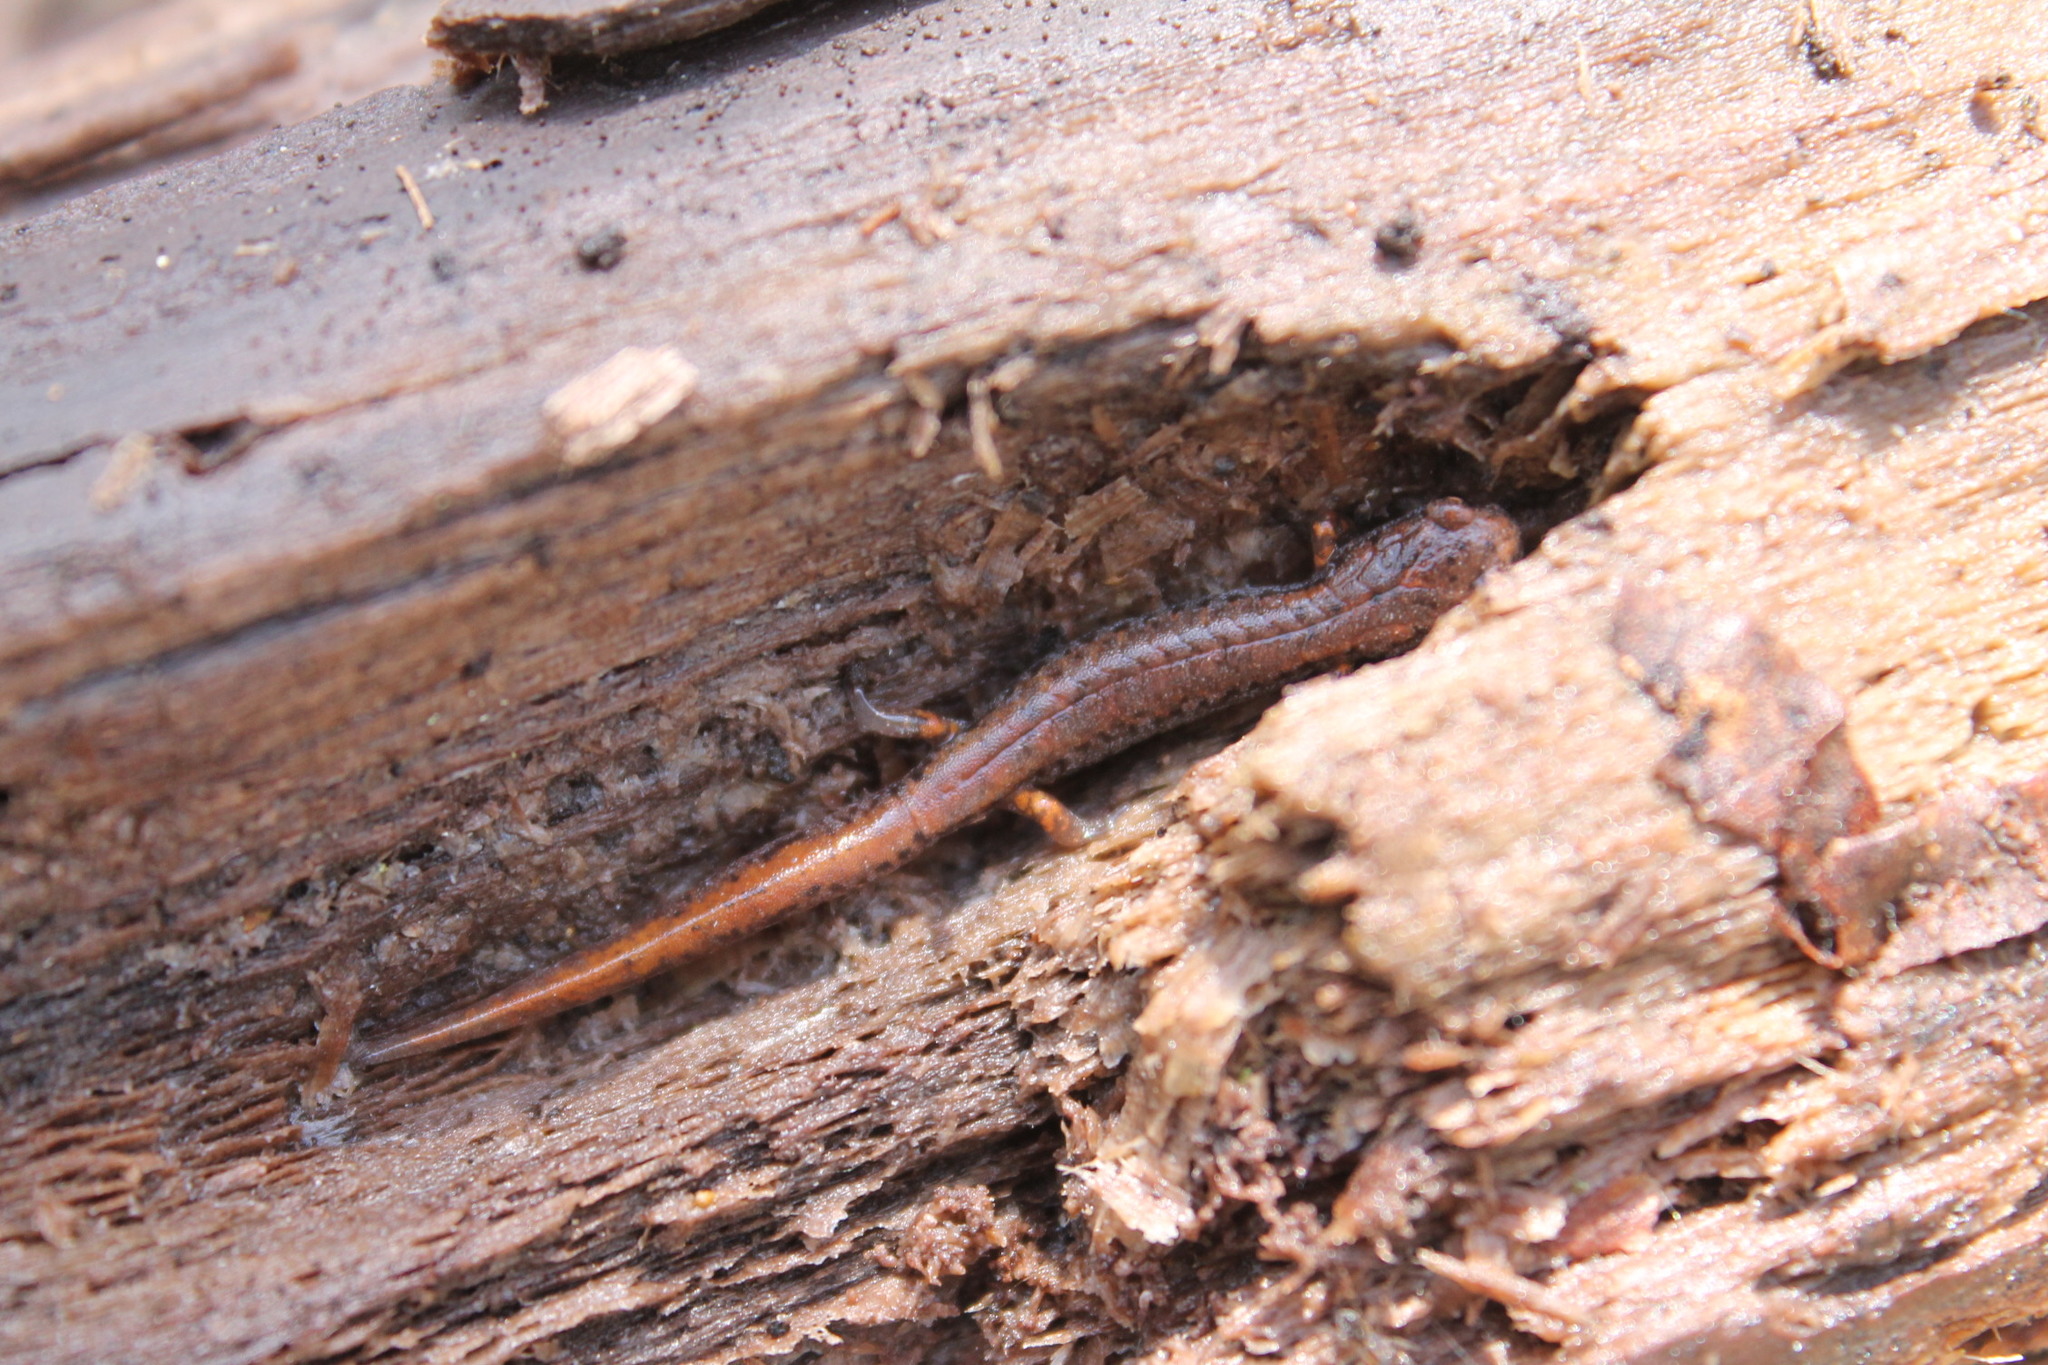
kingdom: Animalia
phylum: Chordata
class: Amphibia
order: Caudata
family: Plethodontidae
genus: Hemidactylium
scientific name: Hemidactylium scutatum
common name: Four-toed salamander
